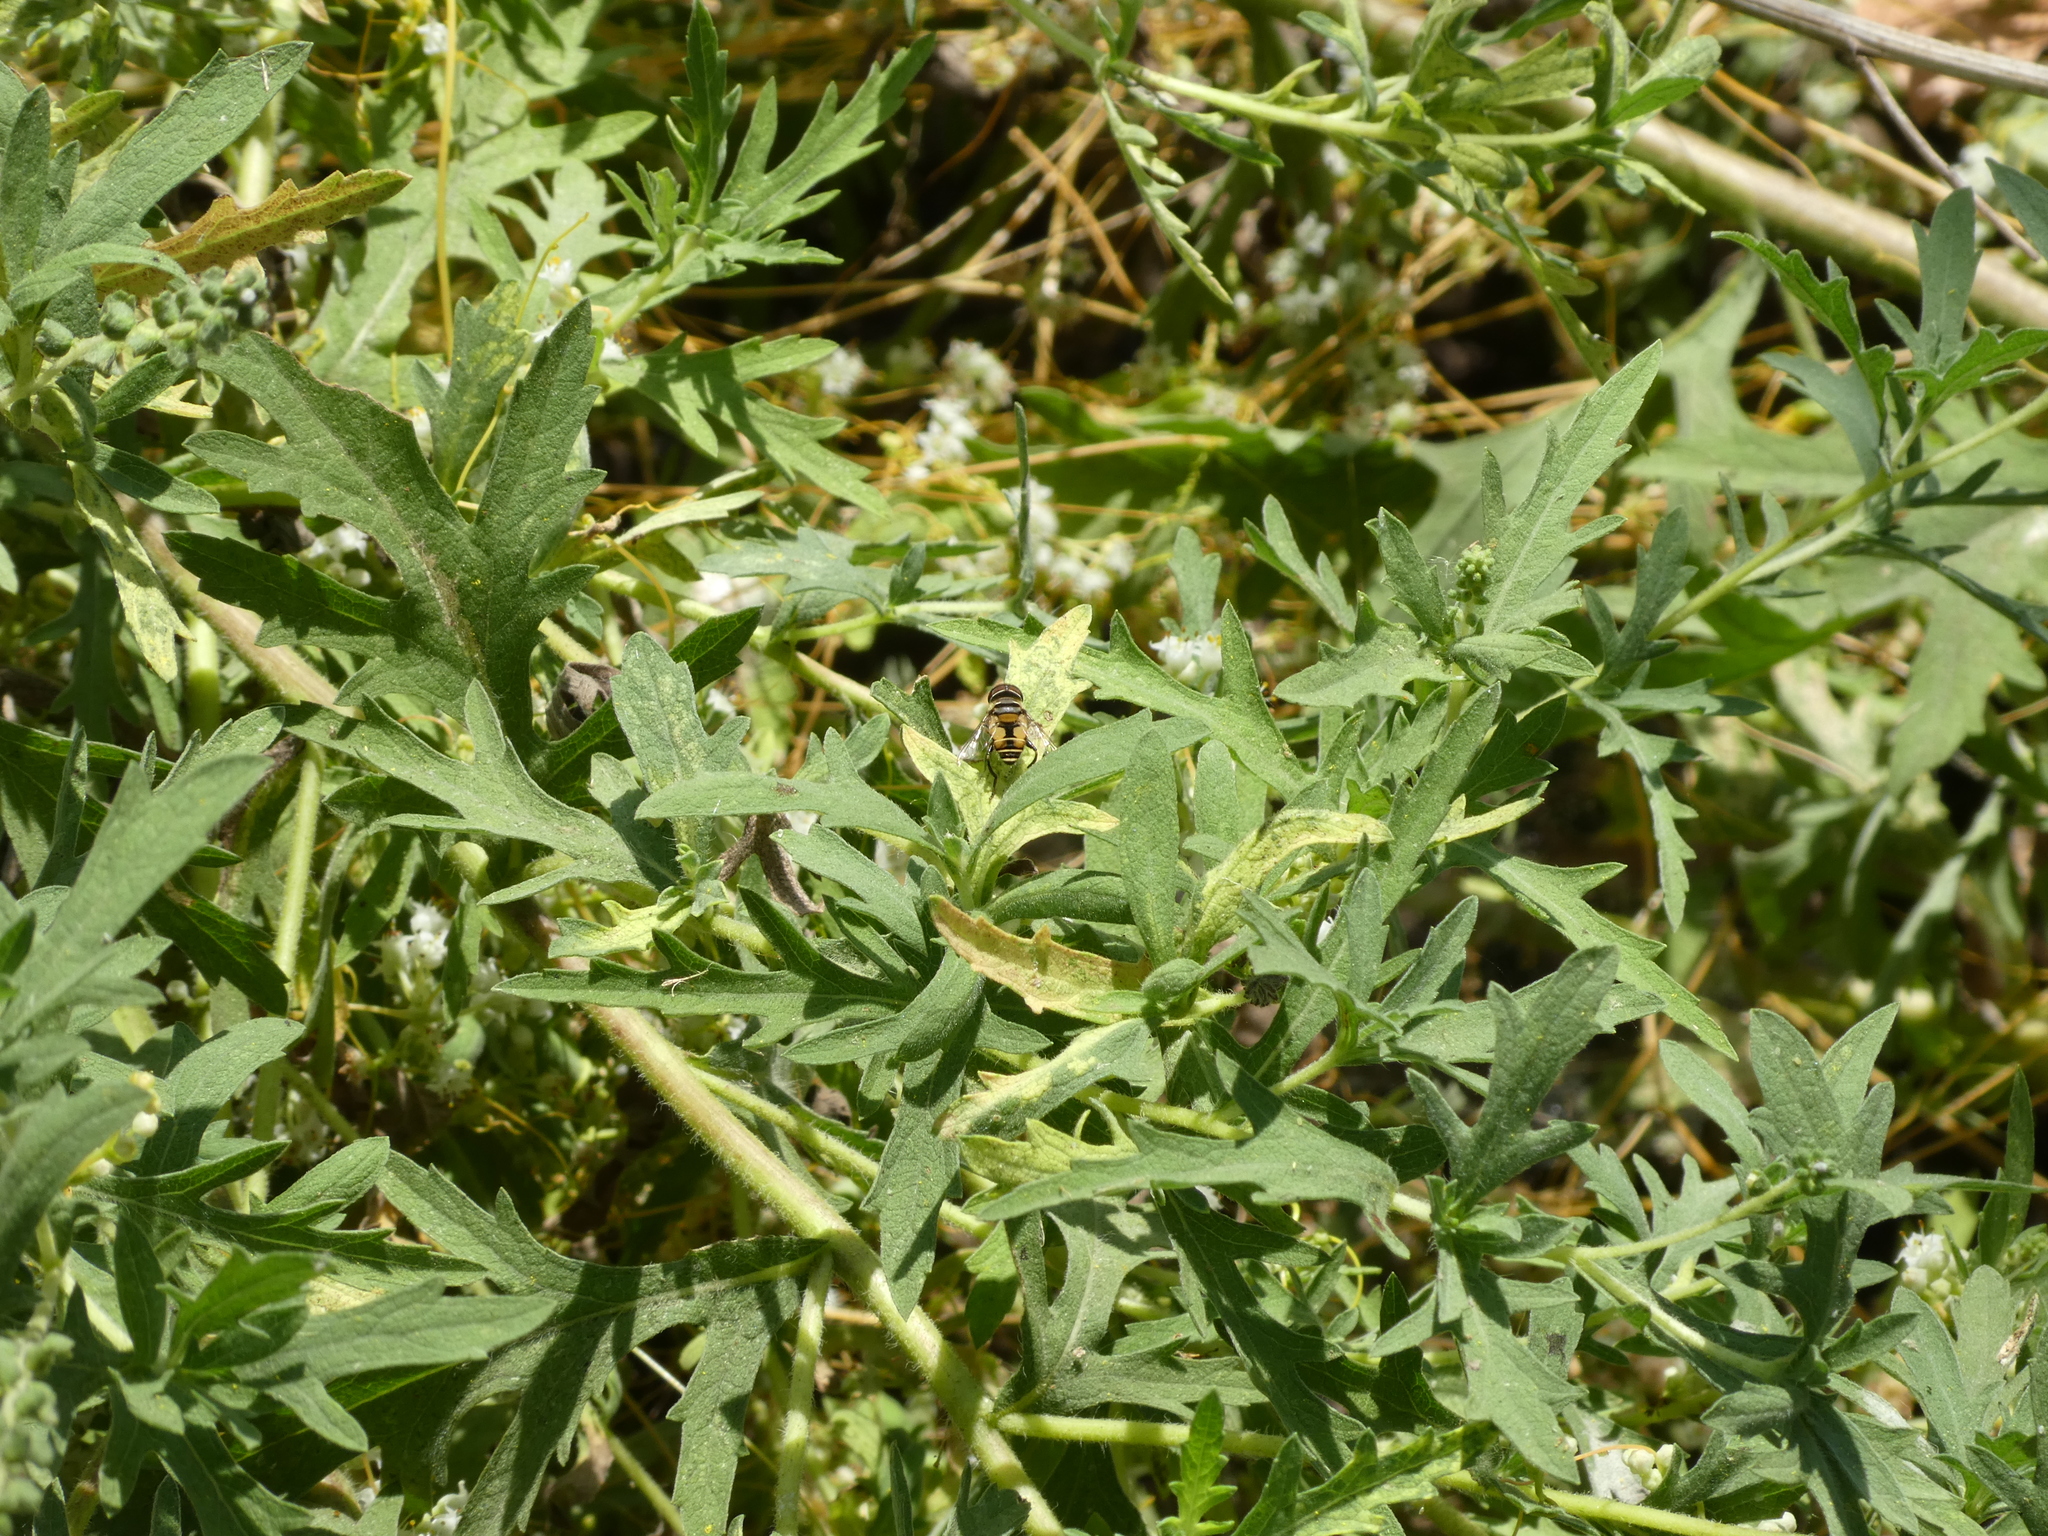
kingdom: Animalia
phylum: Arthropoda
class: Insecta
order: Diptera
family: Syrphidae
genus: Palpada
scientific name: Palpada alhambra
